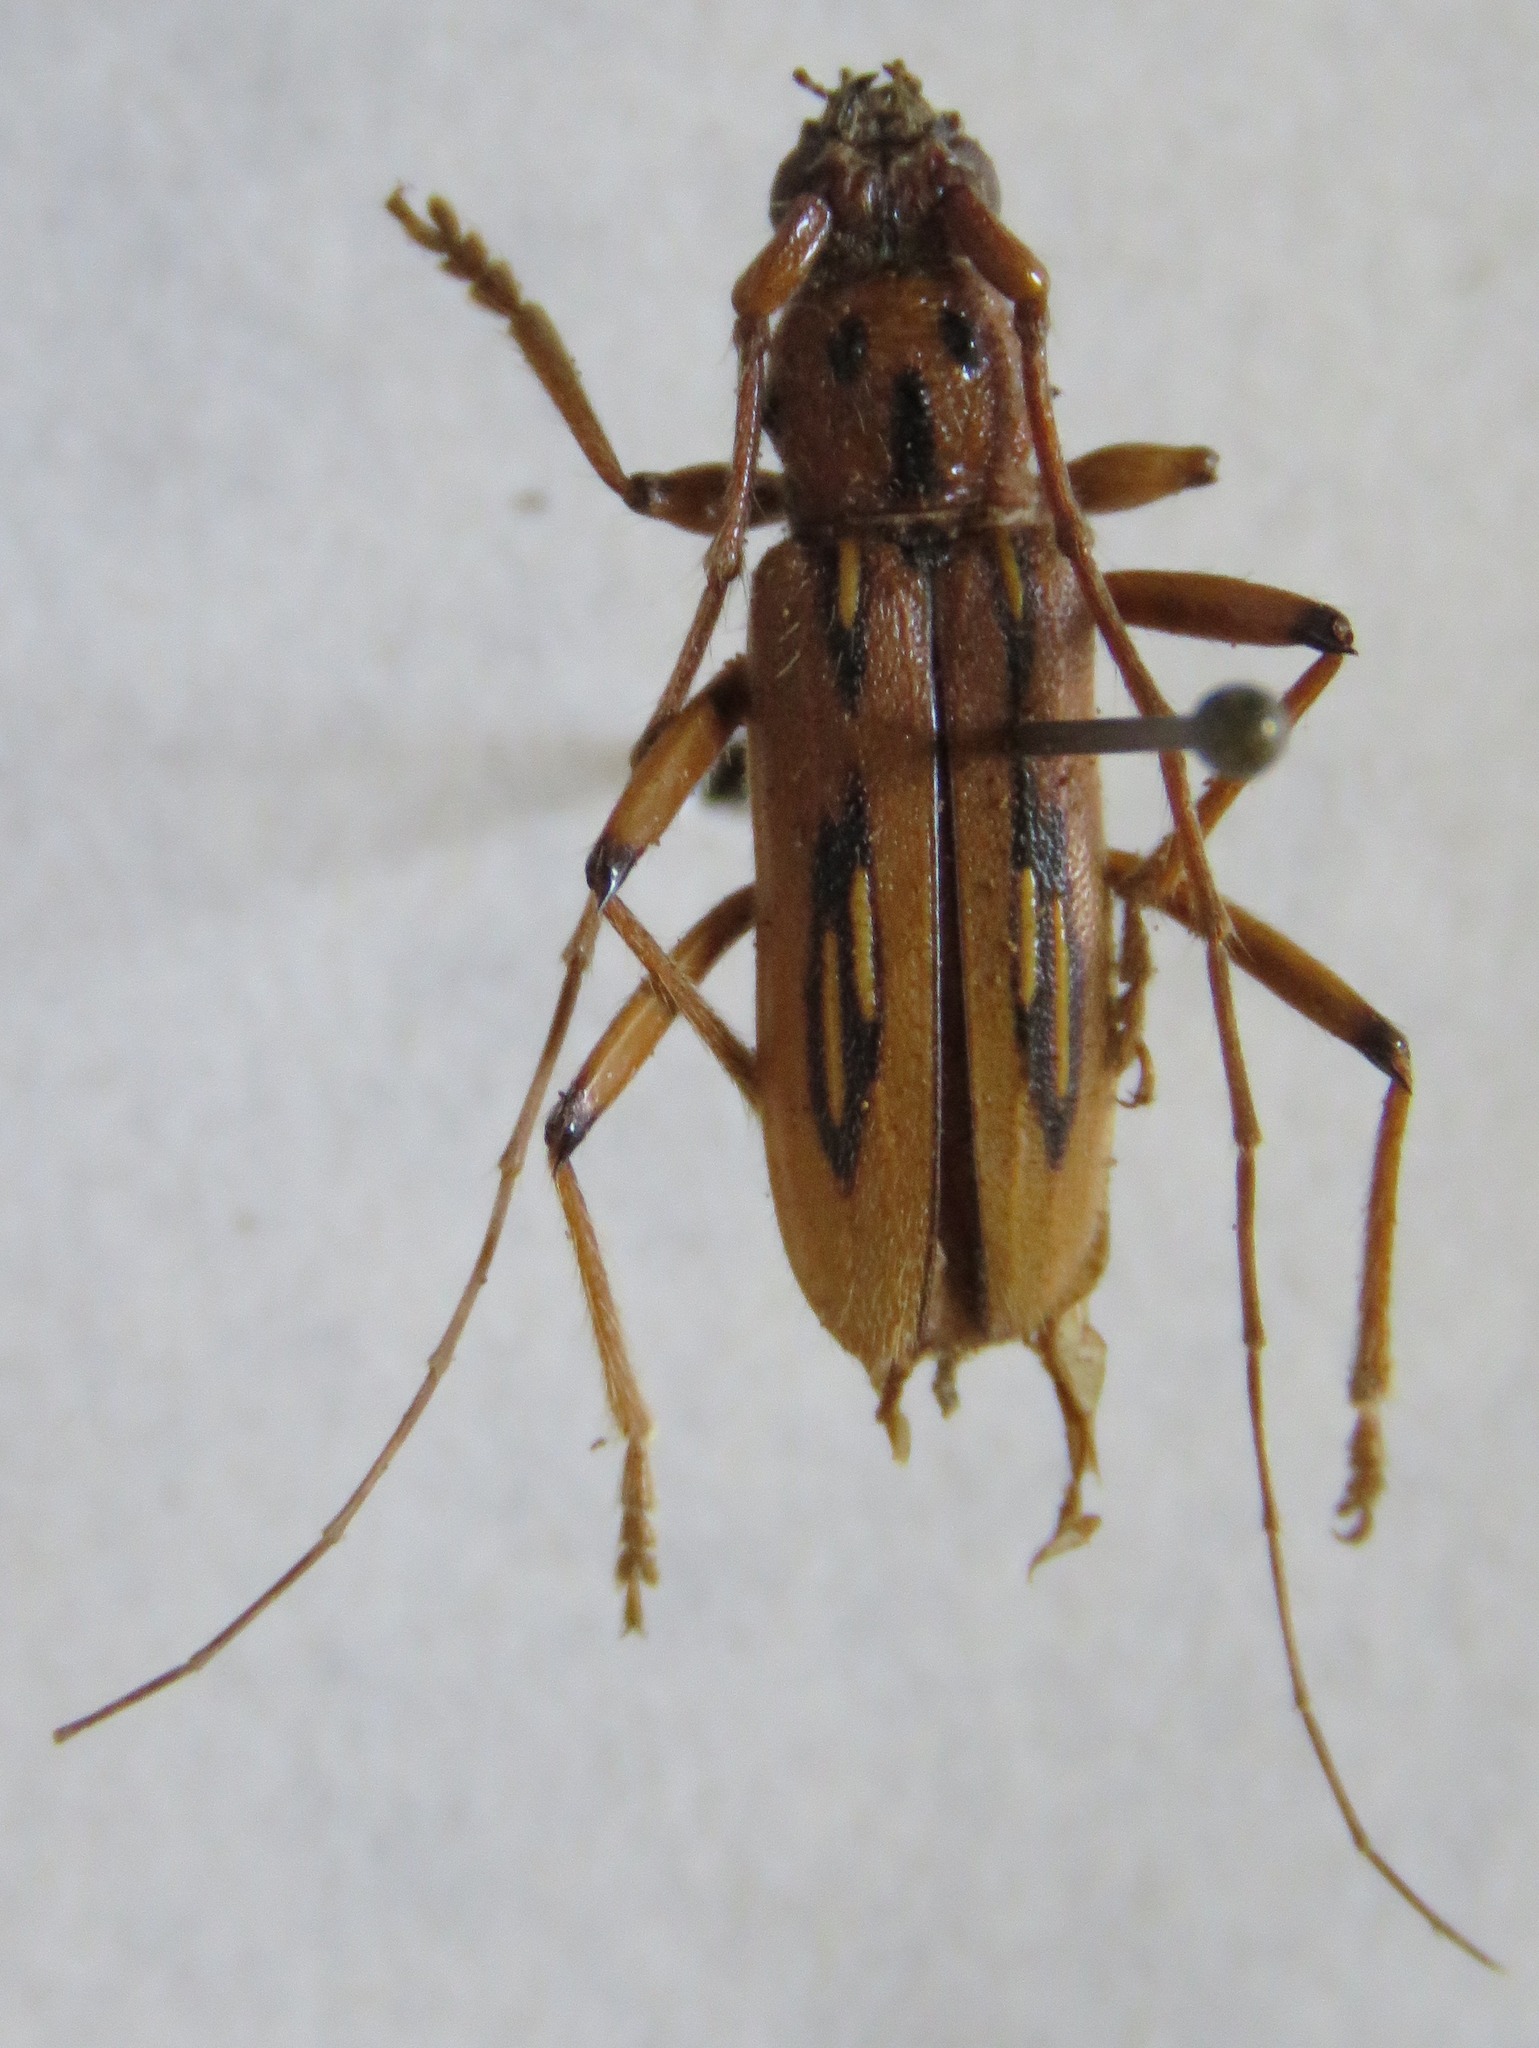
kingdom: Animalia
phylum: Arthropoda
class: Insecta
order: Coleoptera
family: Cerambycidae
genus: Eburodacrys
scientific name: Eburodacrys nemorivaga
